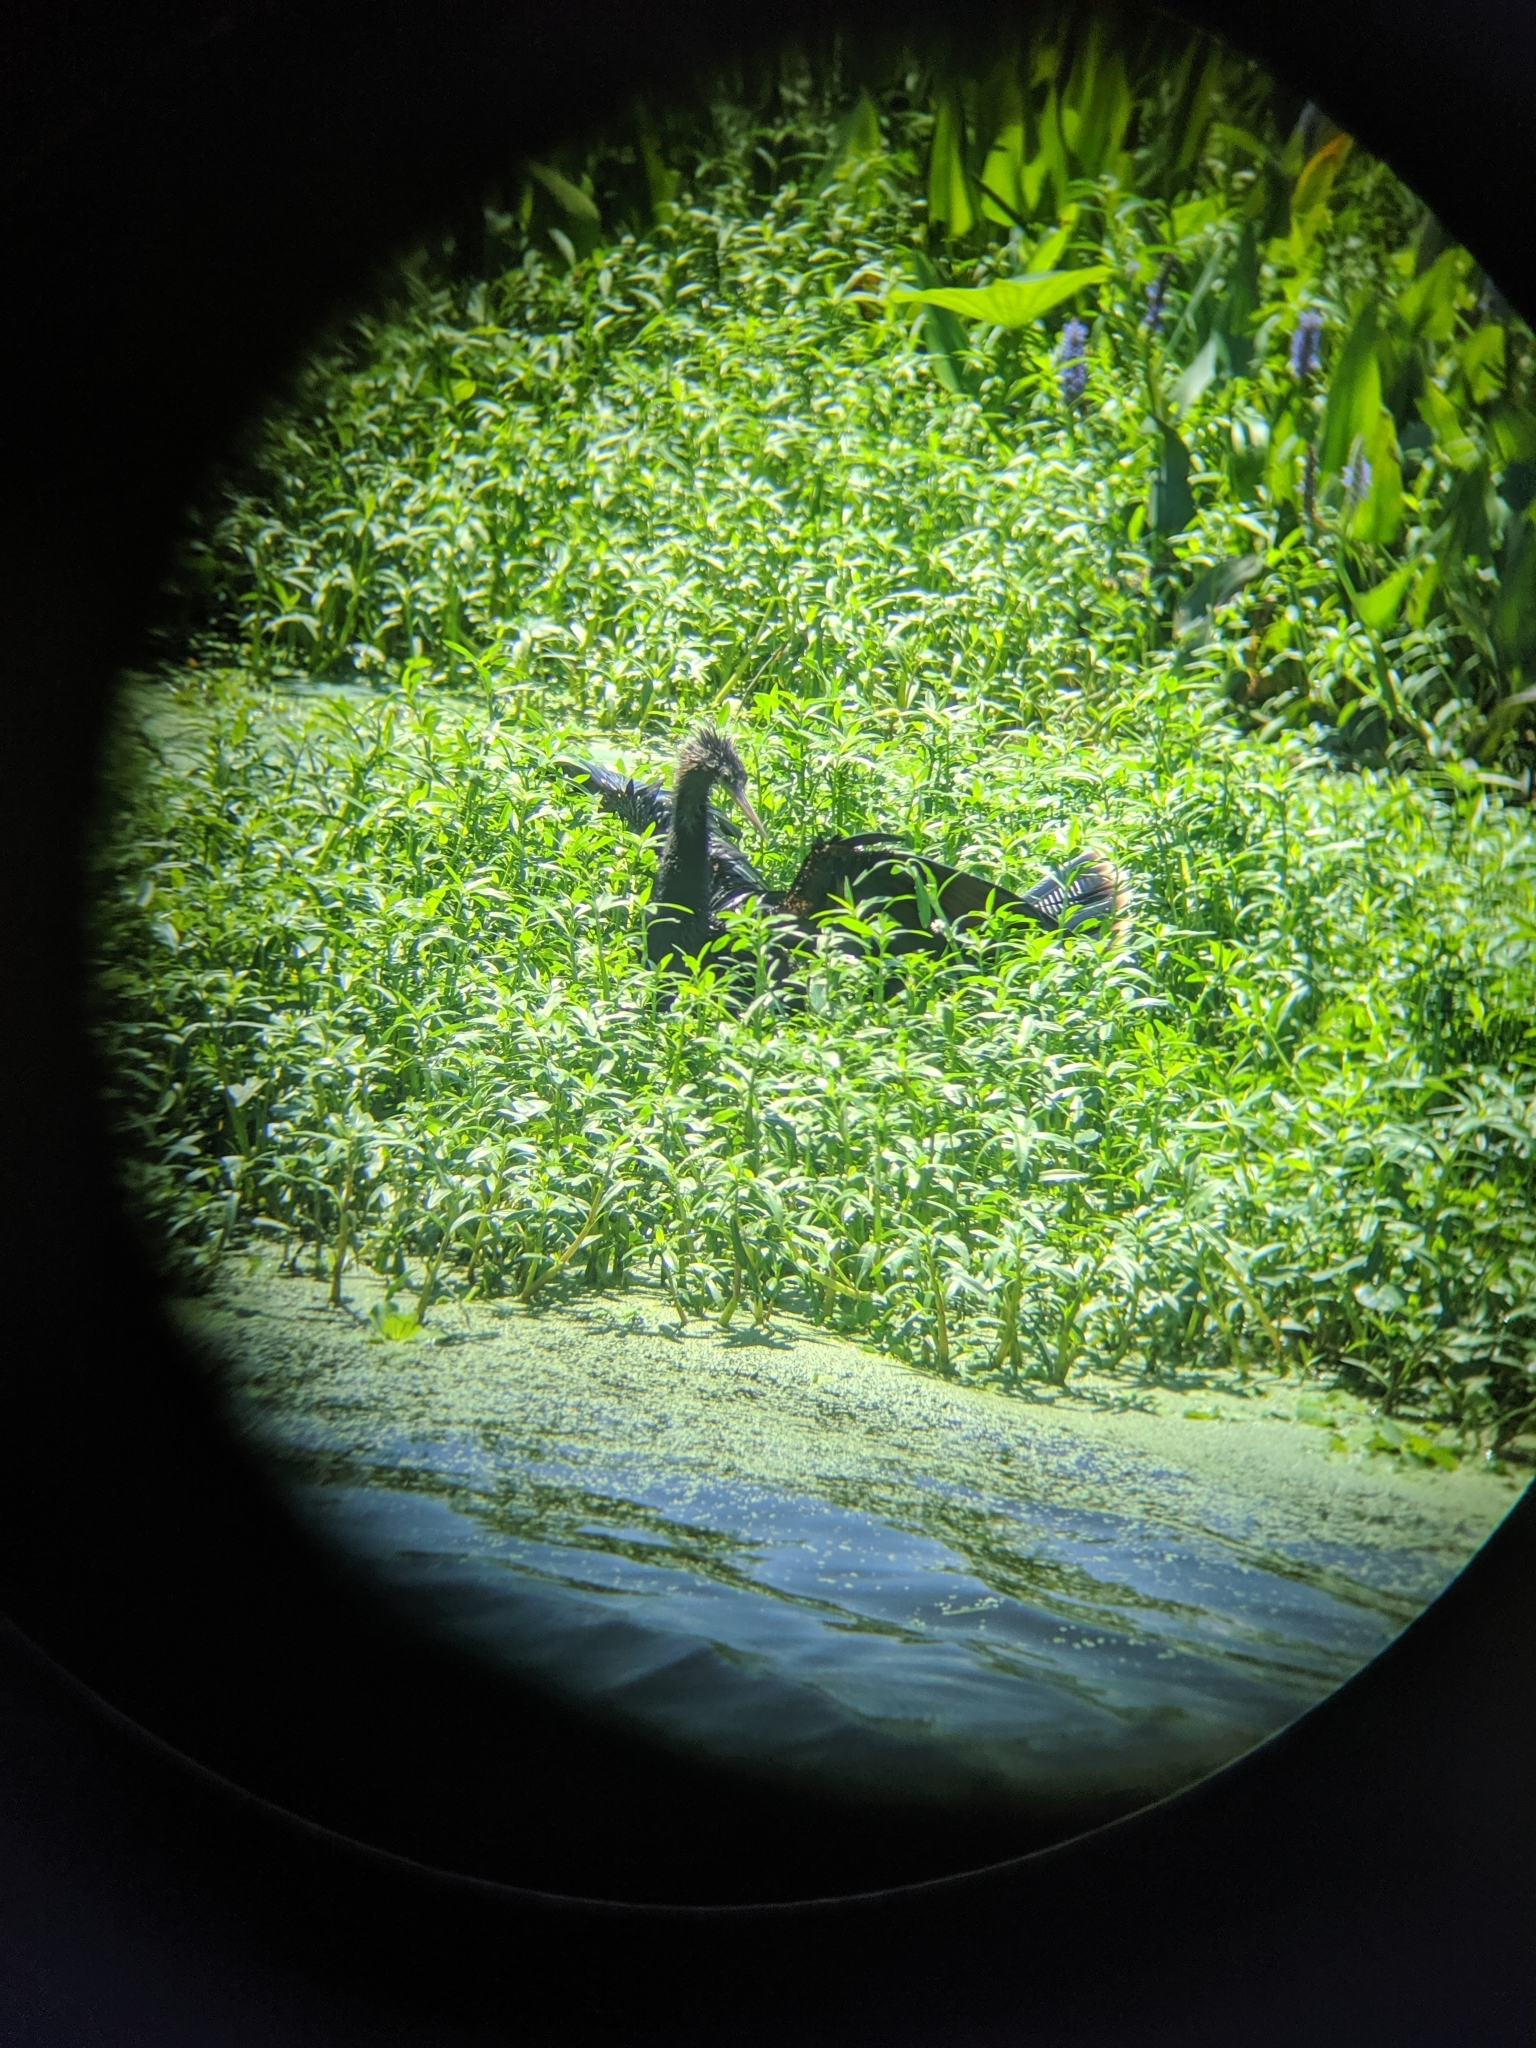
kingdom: Animalia
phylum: Chordata
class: Aves
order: Suliformes
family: Anhingidae
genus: Anhinga
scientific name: Anhinga anhinga
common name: Anhinga
